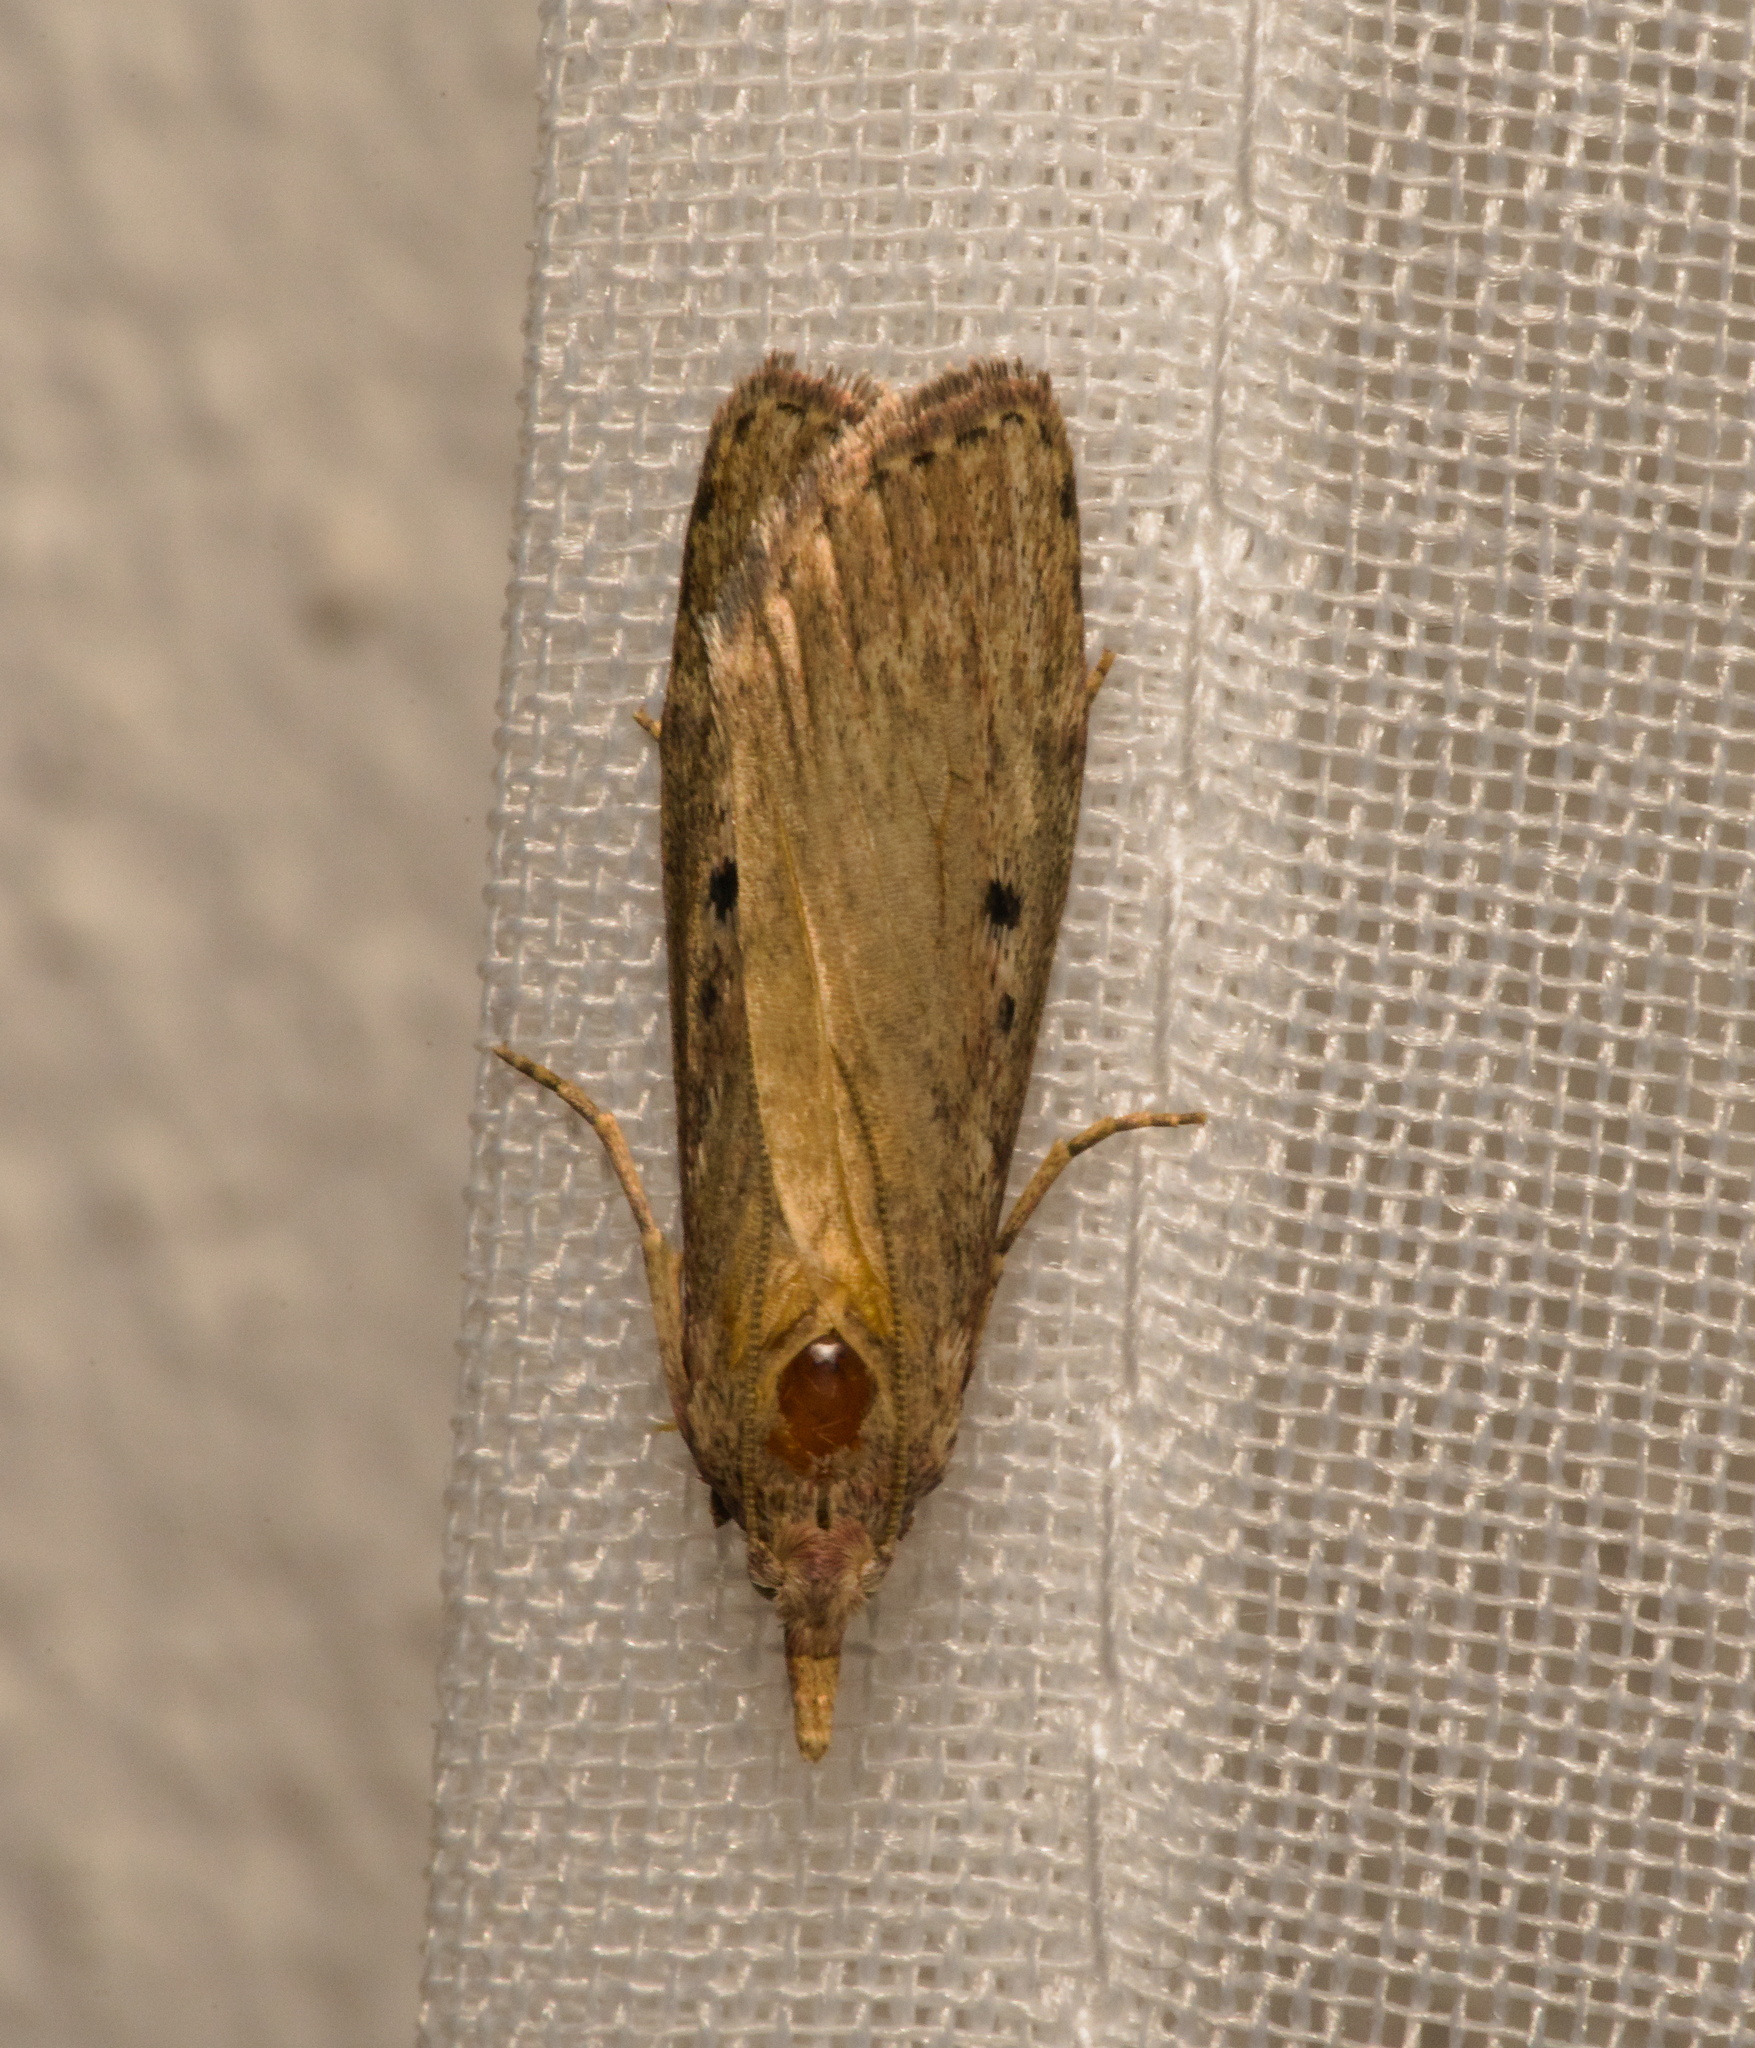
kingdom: Animalia
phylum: Arthropoda
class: Insecta
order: Lepidoptera
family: Pyralidae
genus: Aphomia
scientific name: Aphomia sociella
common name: Bee moth
